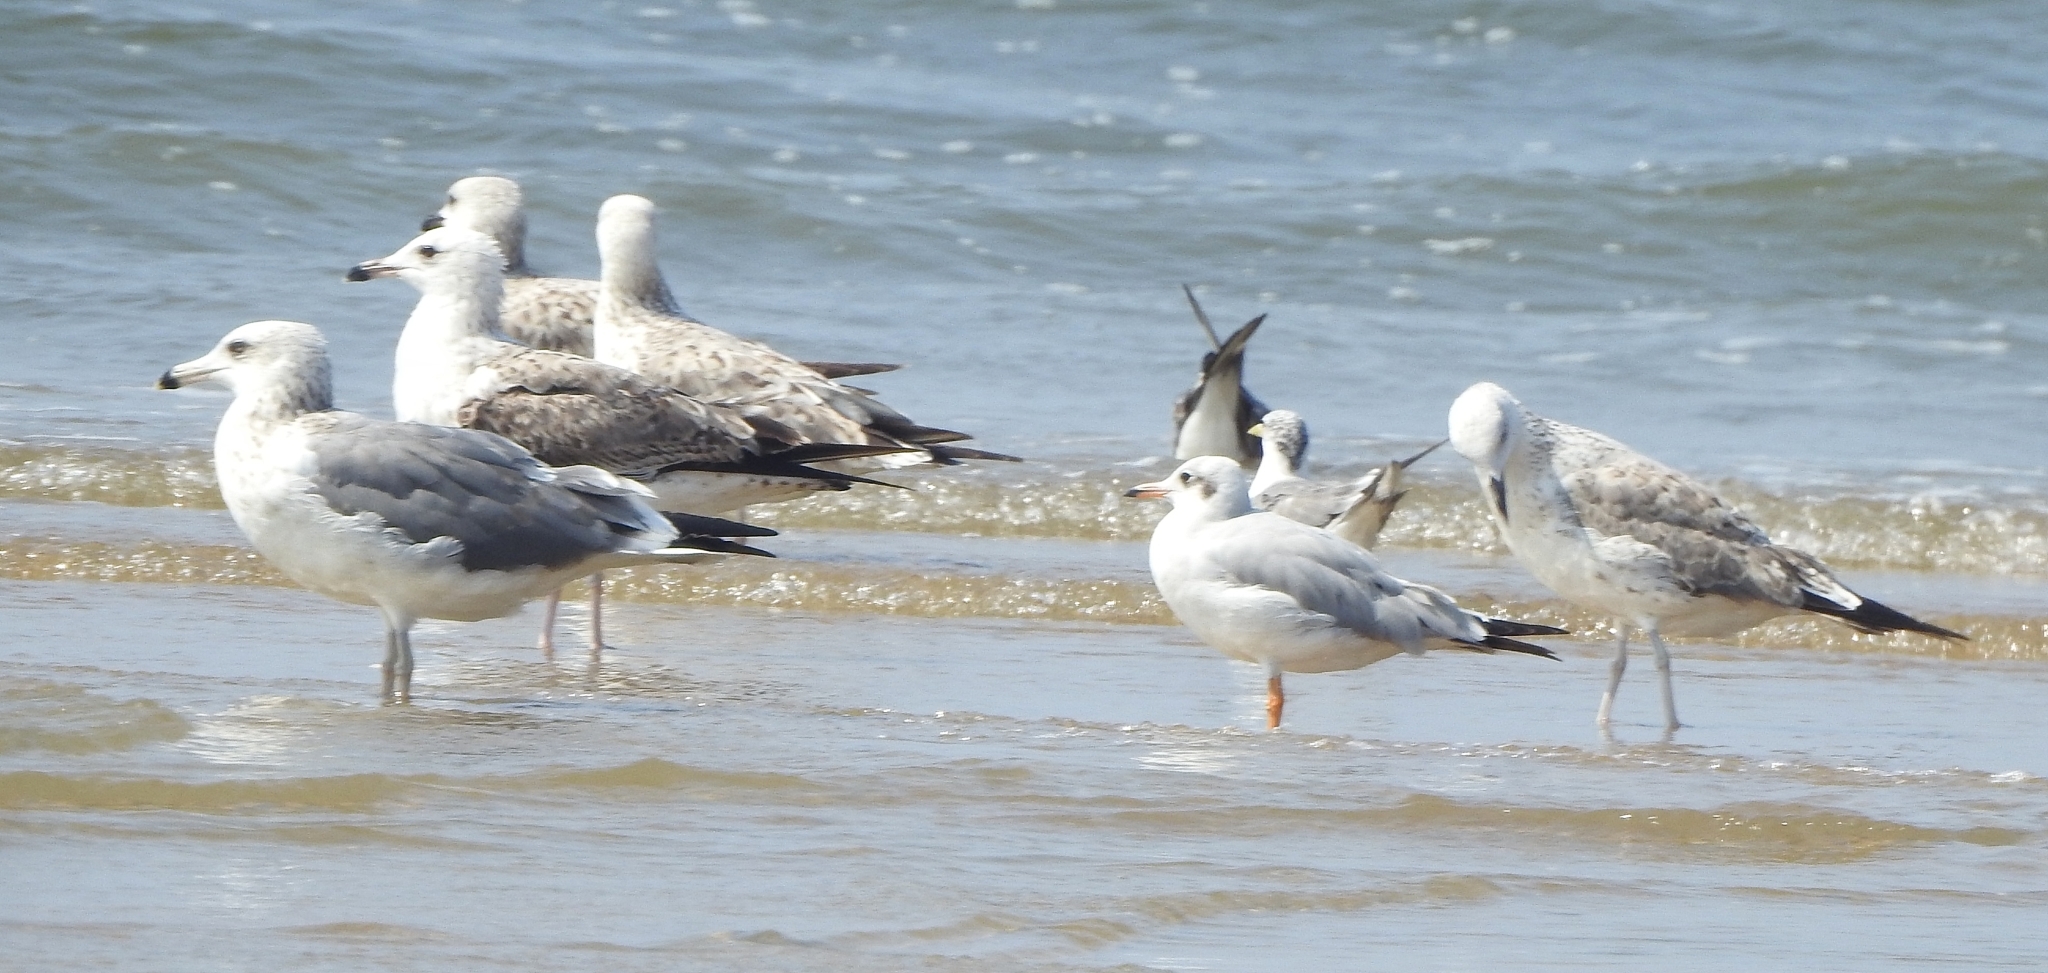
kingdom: Animalia
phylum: Chordata
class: Aves
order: Charadriiformes
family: Laridae
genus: Chroicocephalus
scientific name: Chroicocephalus brunnicephalus
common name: Brown-headed gull
